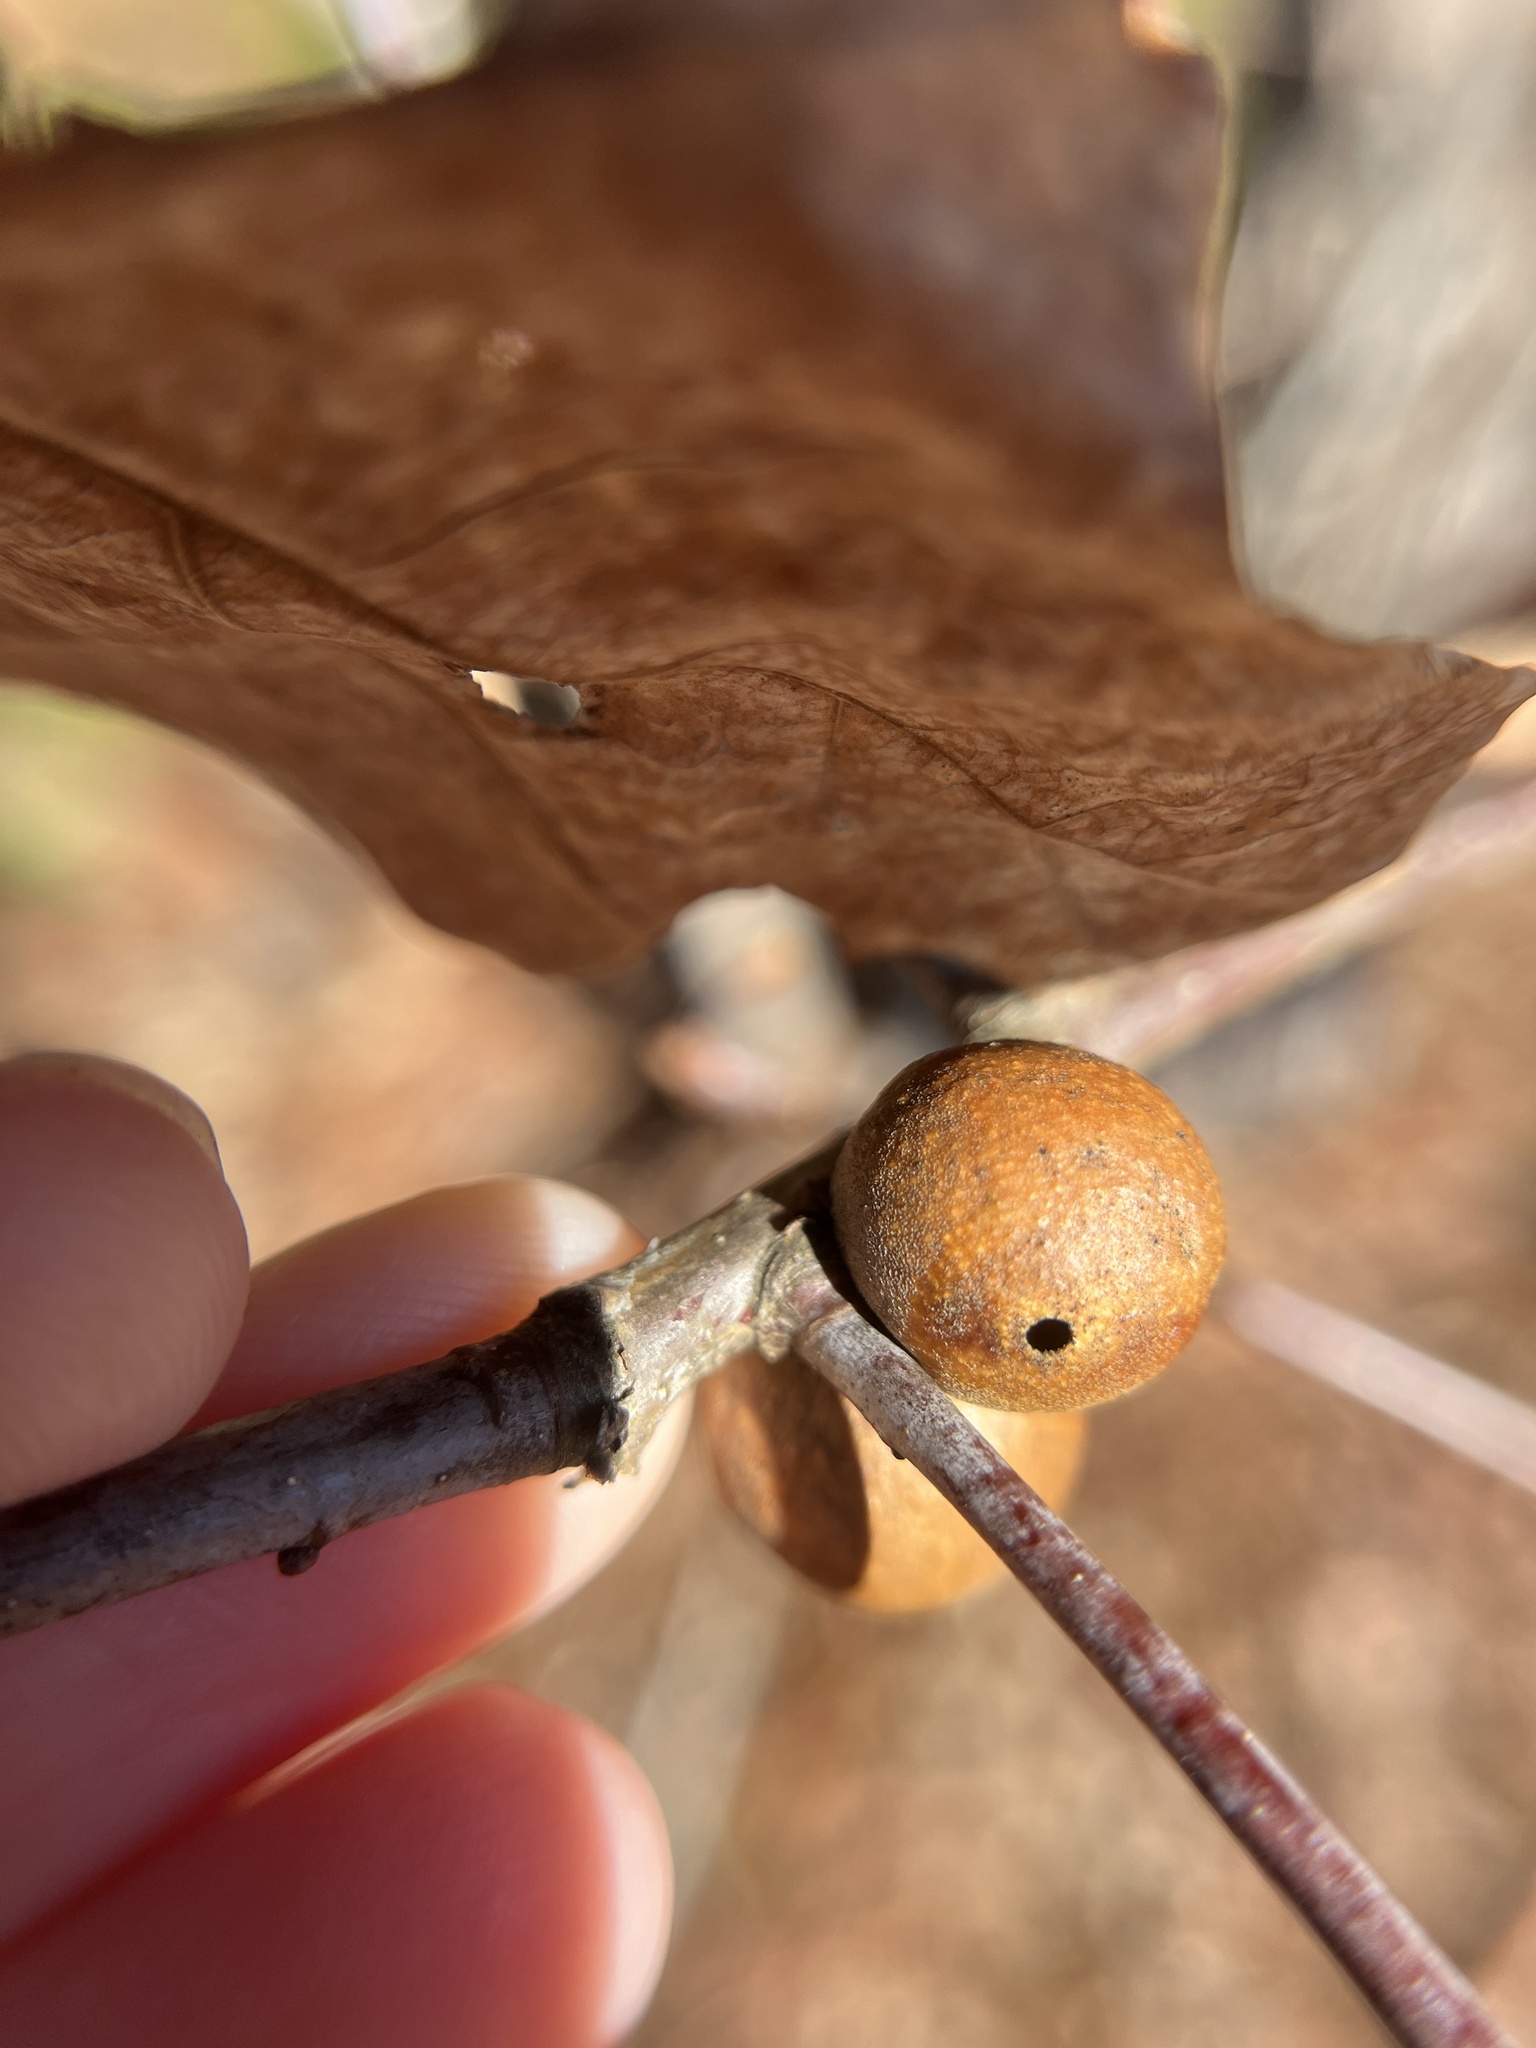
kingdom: Animalia
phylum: Arthropoda
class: Insecta
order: Hymenoptera
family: Cynipidae
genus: Disholcaspis
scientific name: Disholcaspis quercusglobulus
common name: Round bullet gall wasp
